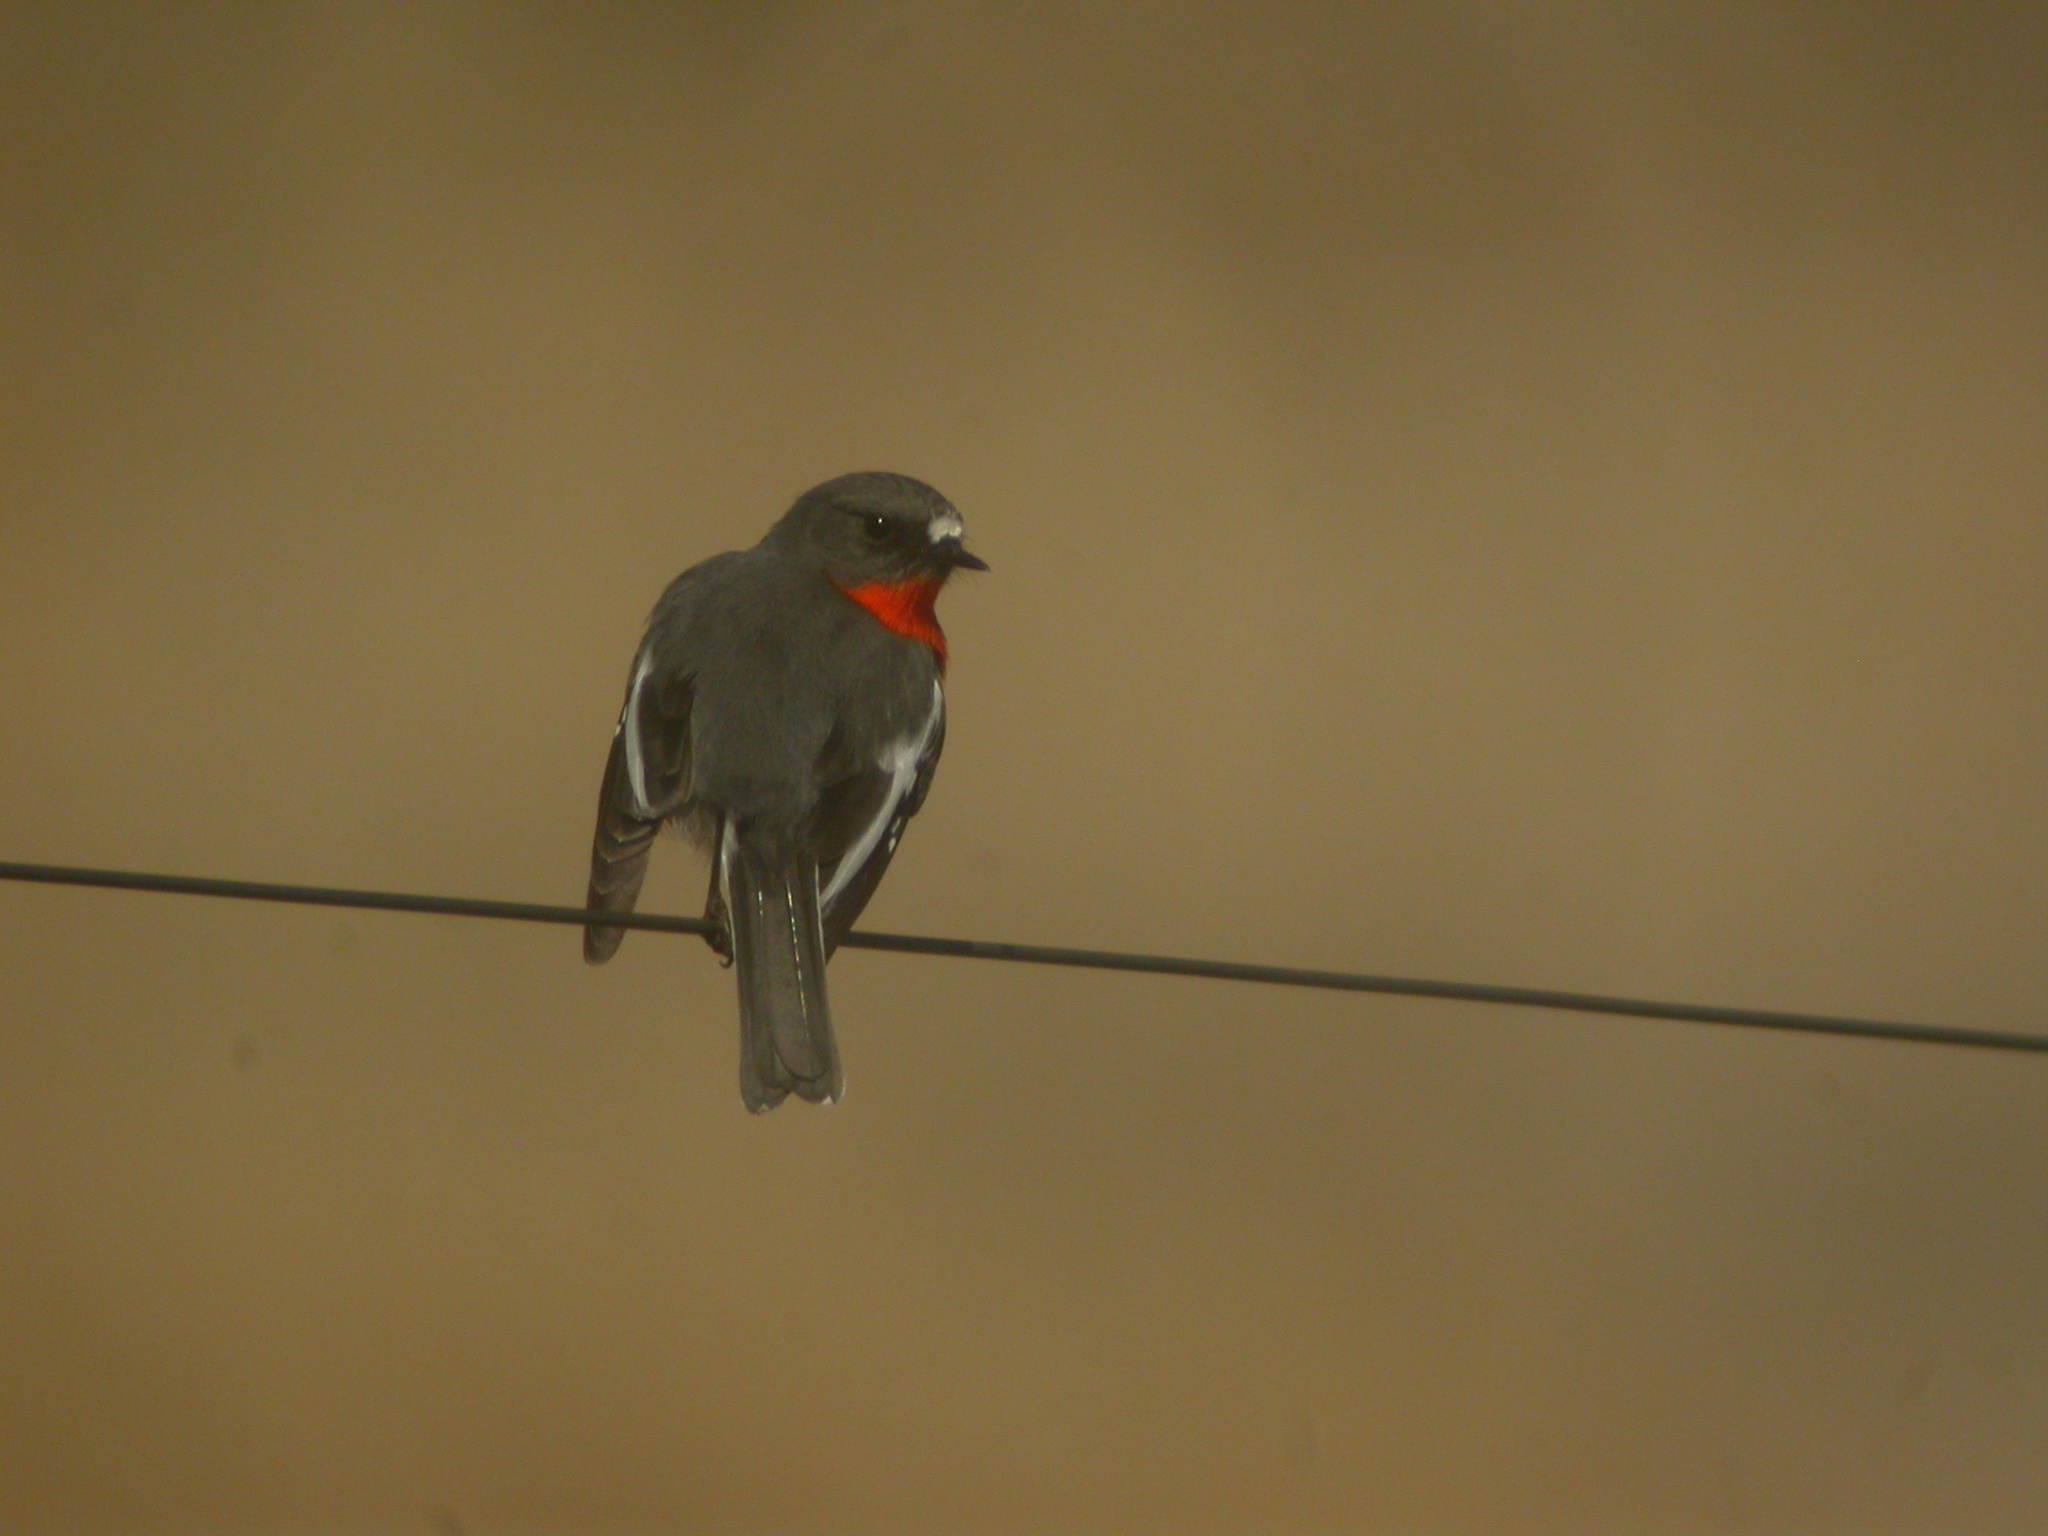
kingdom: Animalia
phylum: Chordata
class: Aves
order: Passeriformes
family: Petroicidae
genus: Petroica
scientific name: Petroica phoenicea
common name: Flame robin
